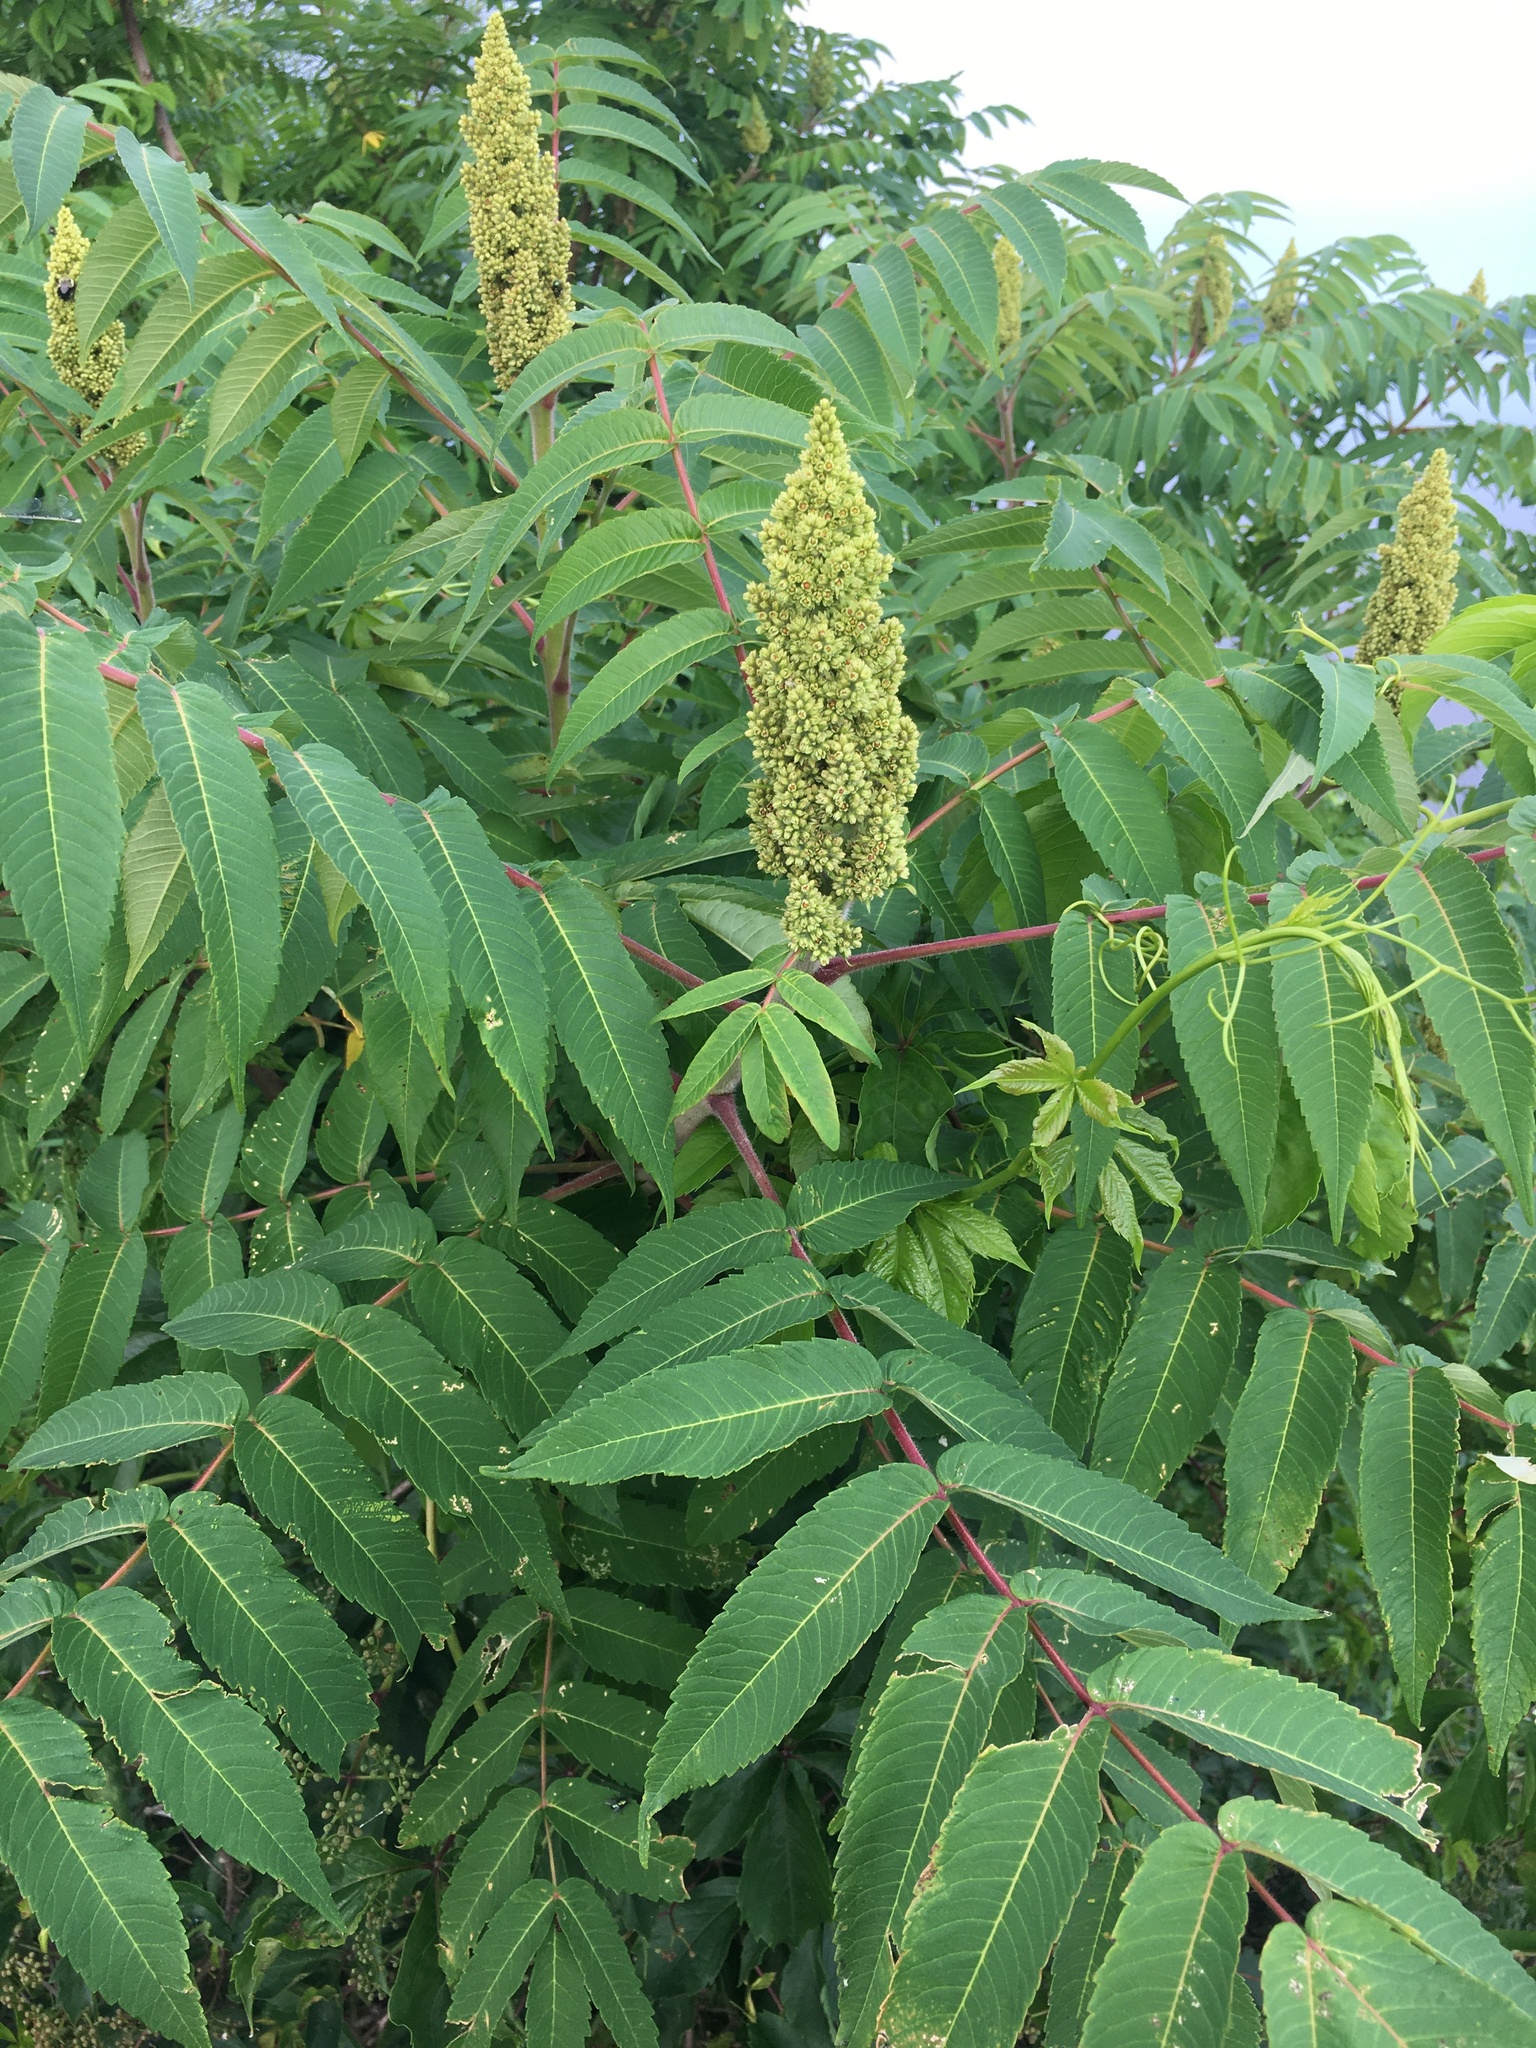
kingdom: Plantae
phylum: Tracheophyta
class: Magnoliopsida
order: Sapindales
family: Anacardiaceae
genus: Rhus
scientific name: Rhus typhina
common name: Staghorn sumac
